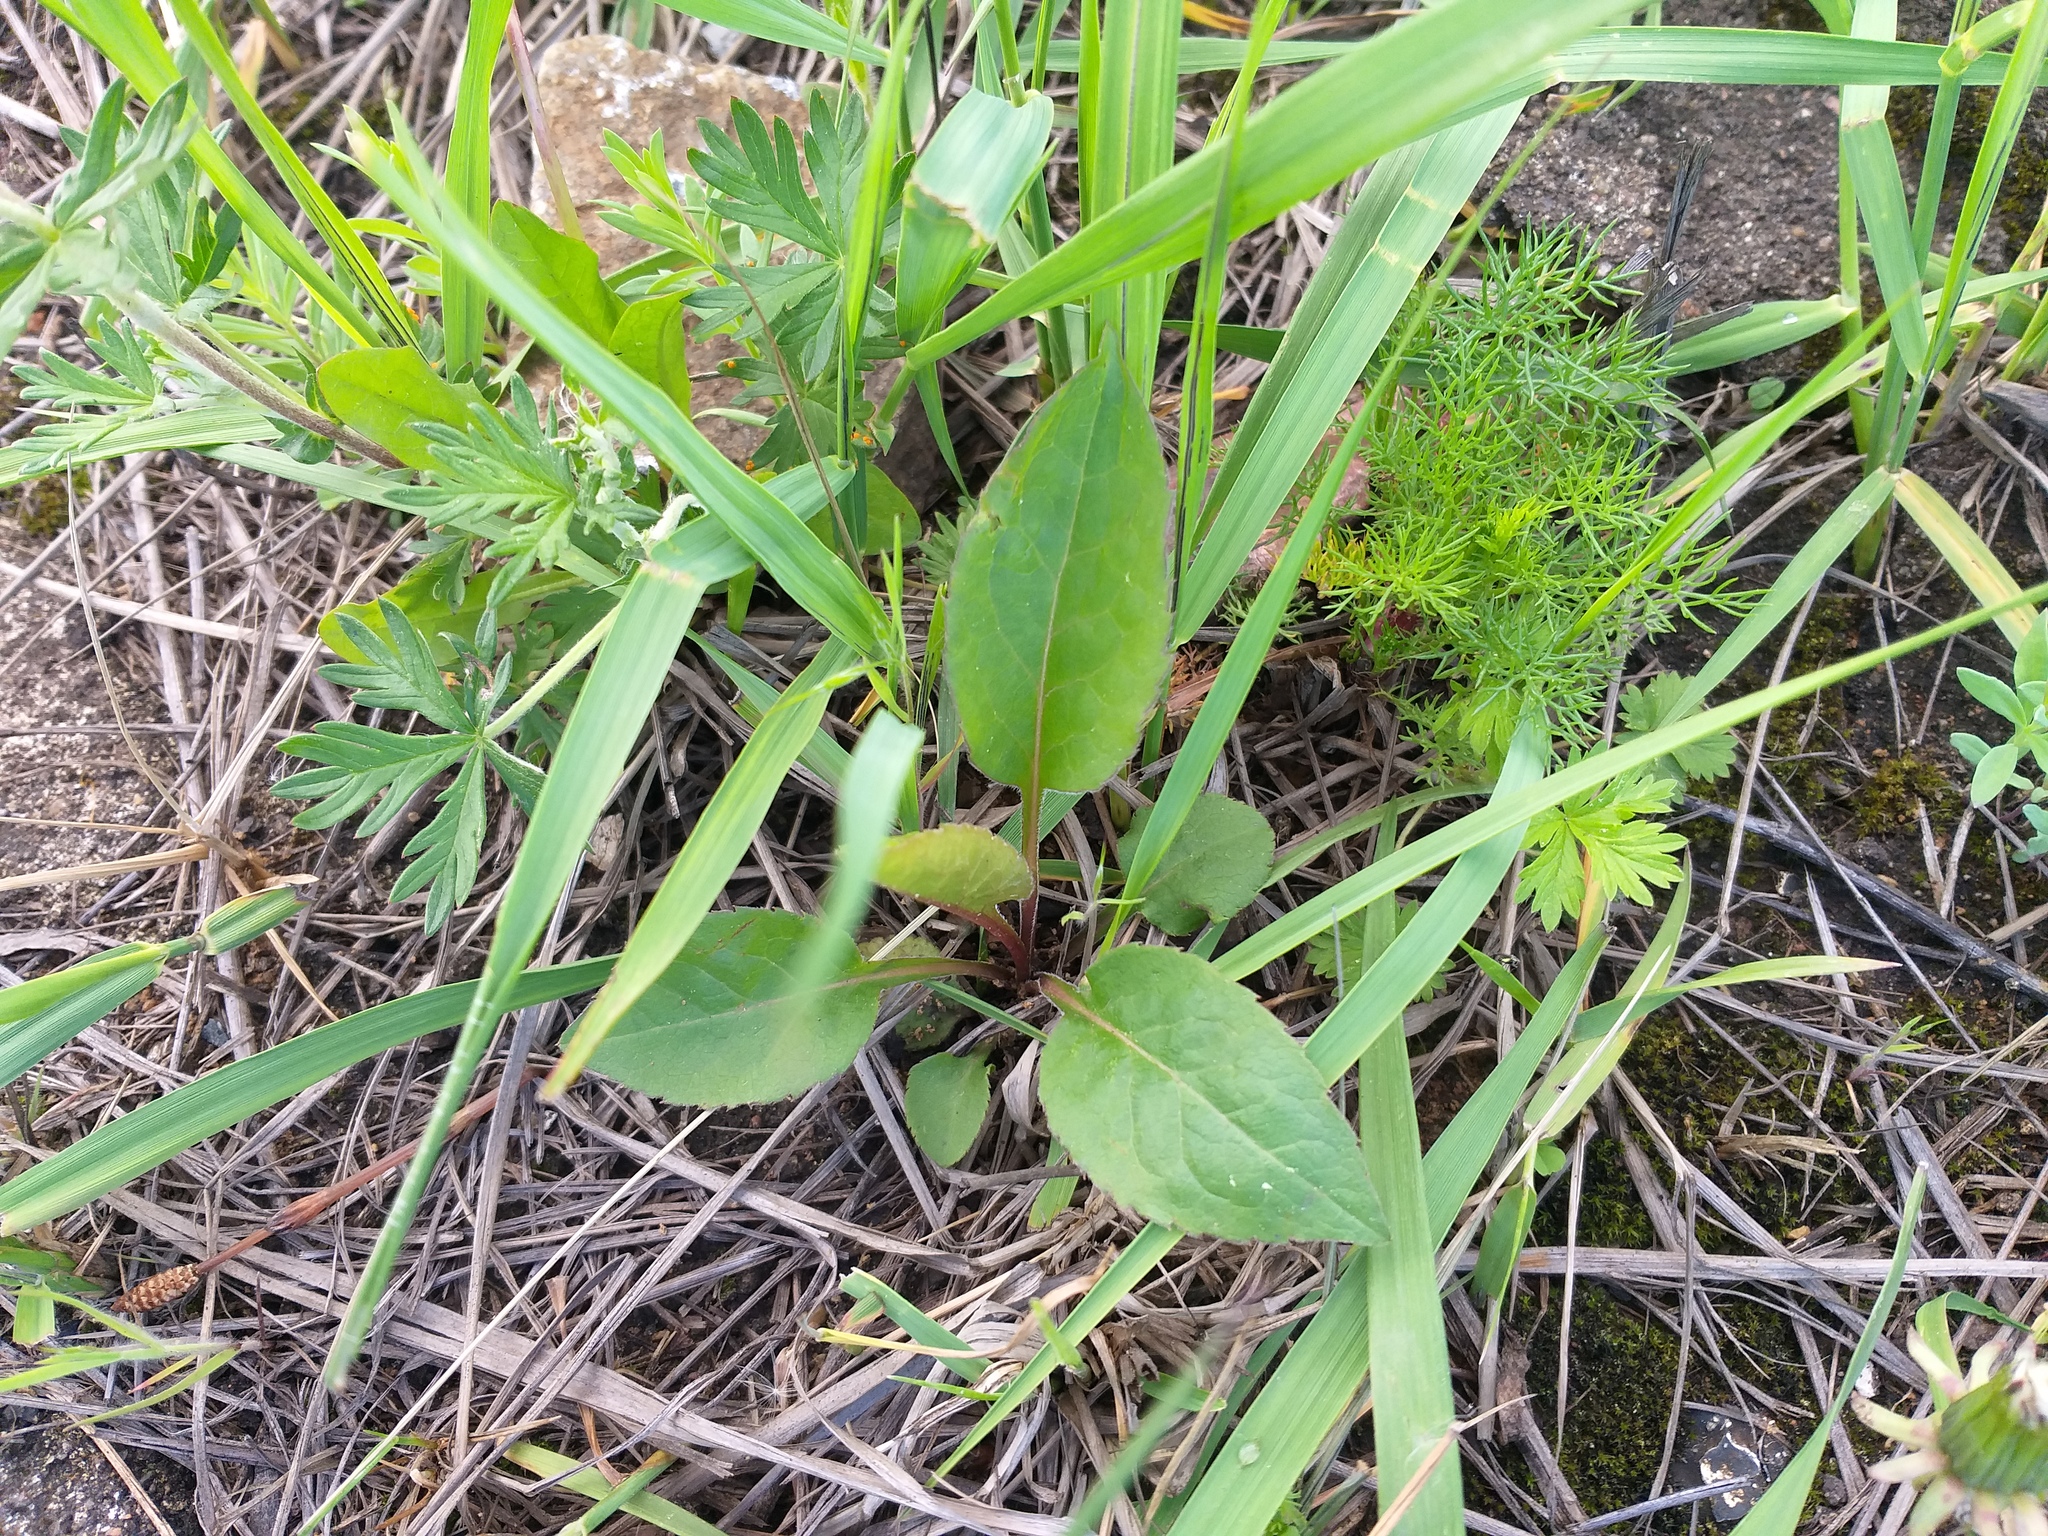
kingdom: Plantae
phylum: Tracheophyta
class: Magnoliopsida
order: Asterales
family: Asteraceae
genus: Solidago
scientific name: Solidago virgaurea
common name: Goldenrod
